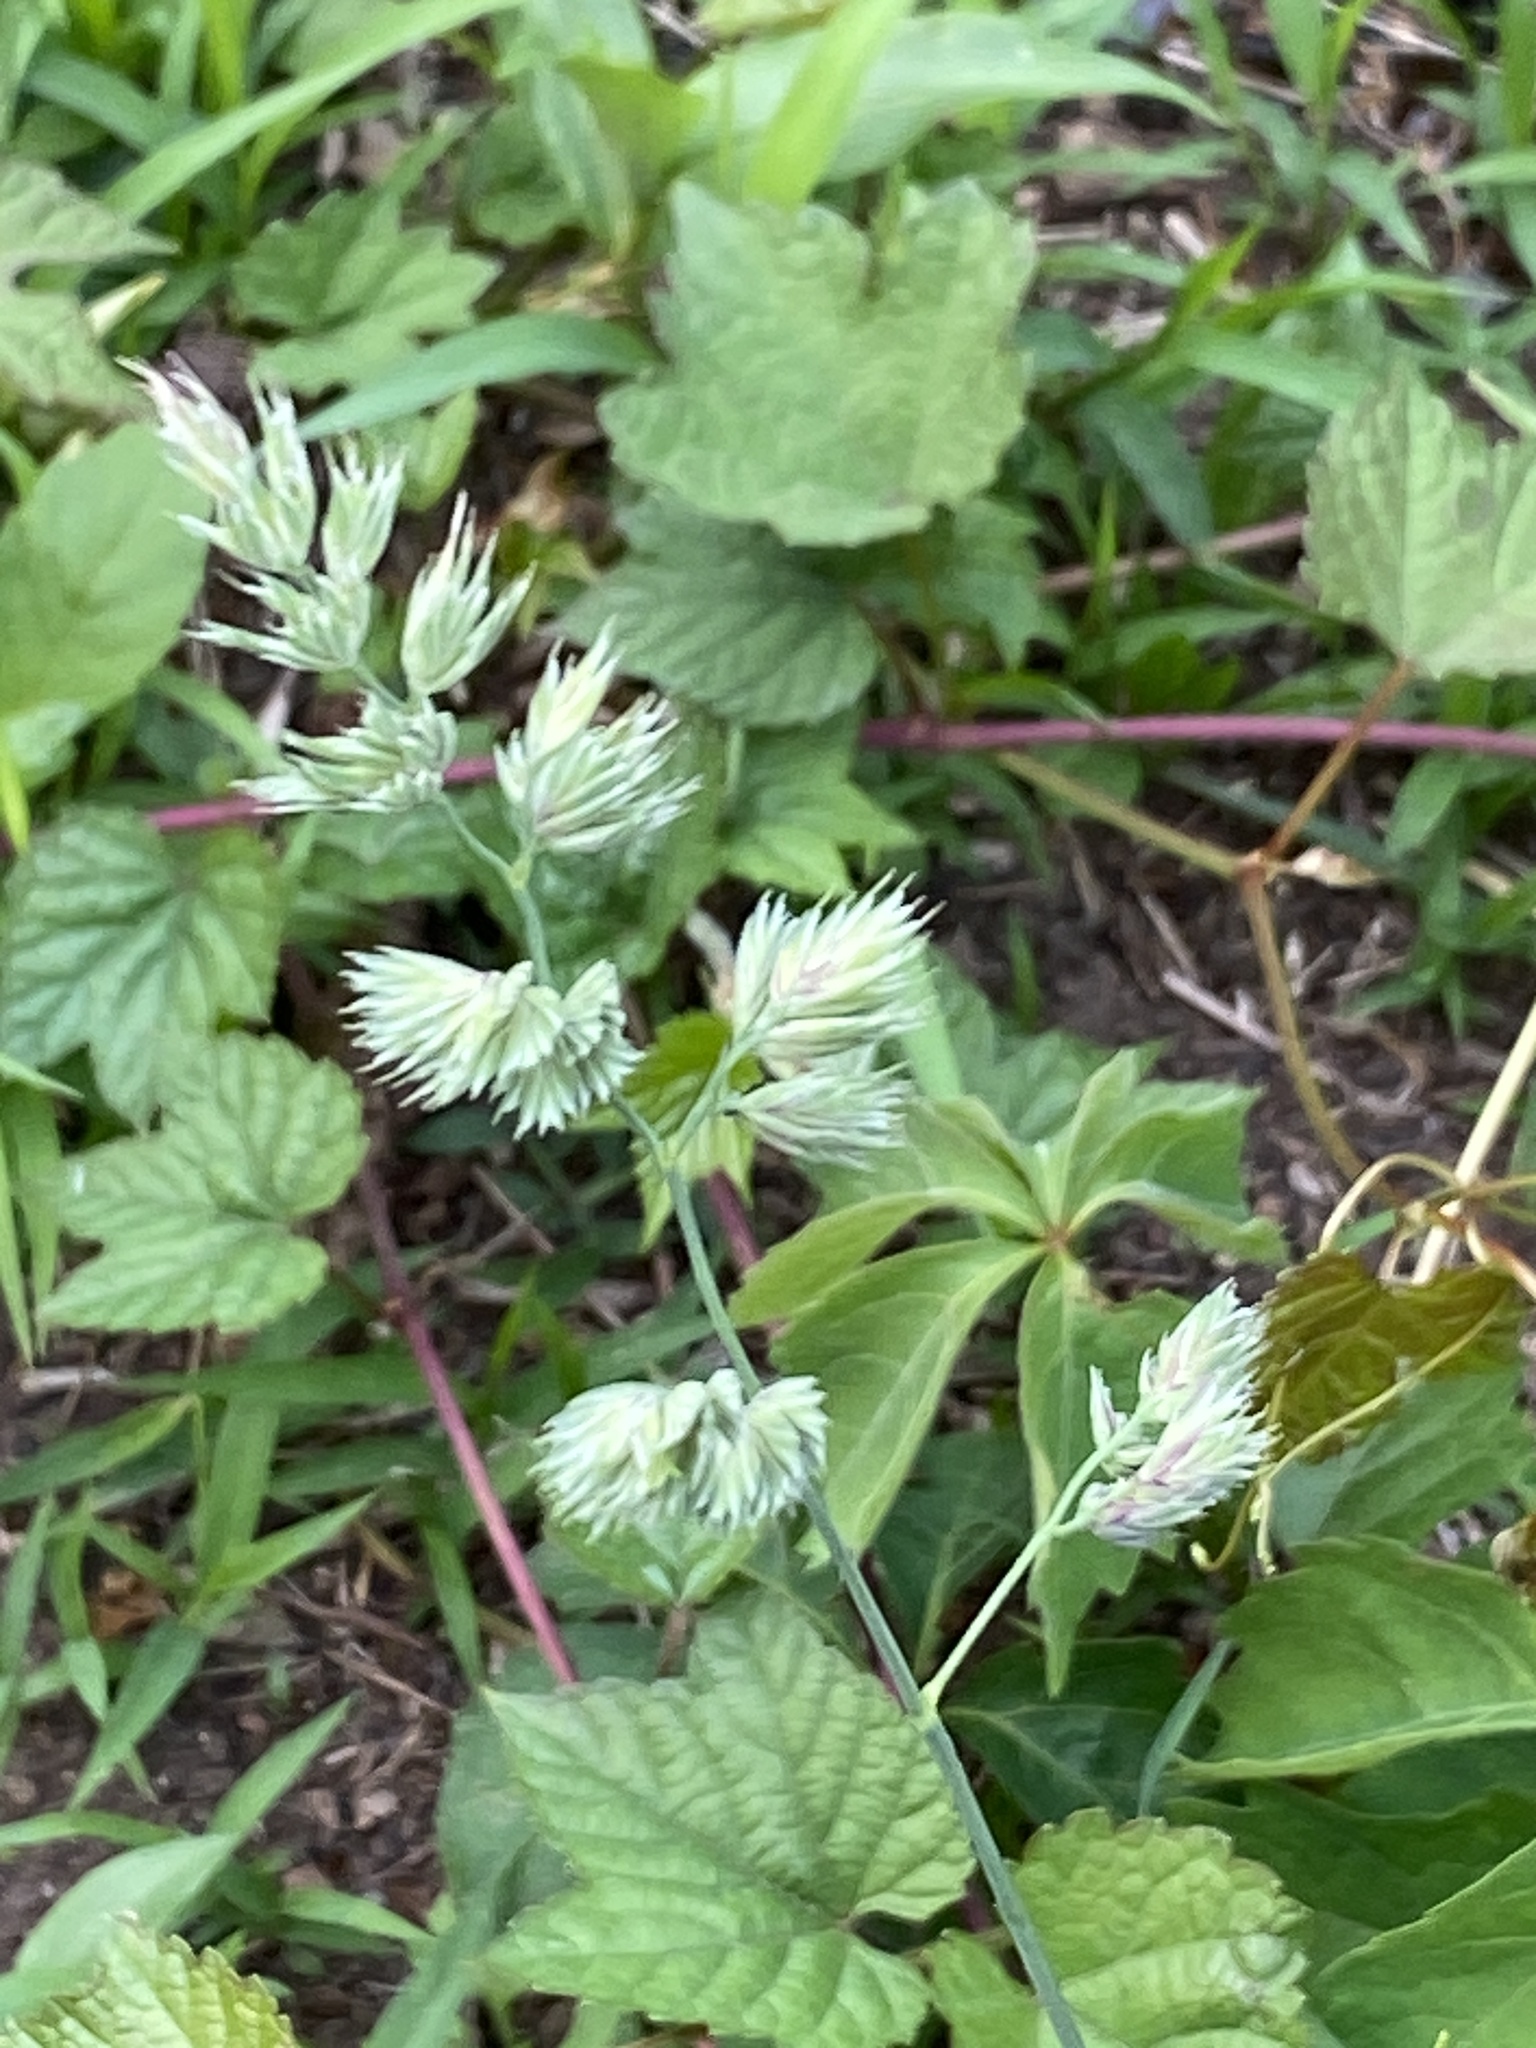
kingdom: Plantae
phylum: Tracheophyta
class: Liliopsida
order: Poales
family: Poaceae
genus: Dactylis
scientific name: Dactylis glomerata
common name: Orchardgrass
